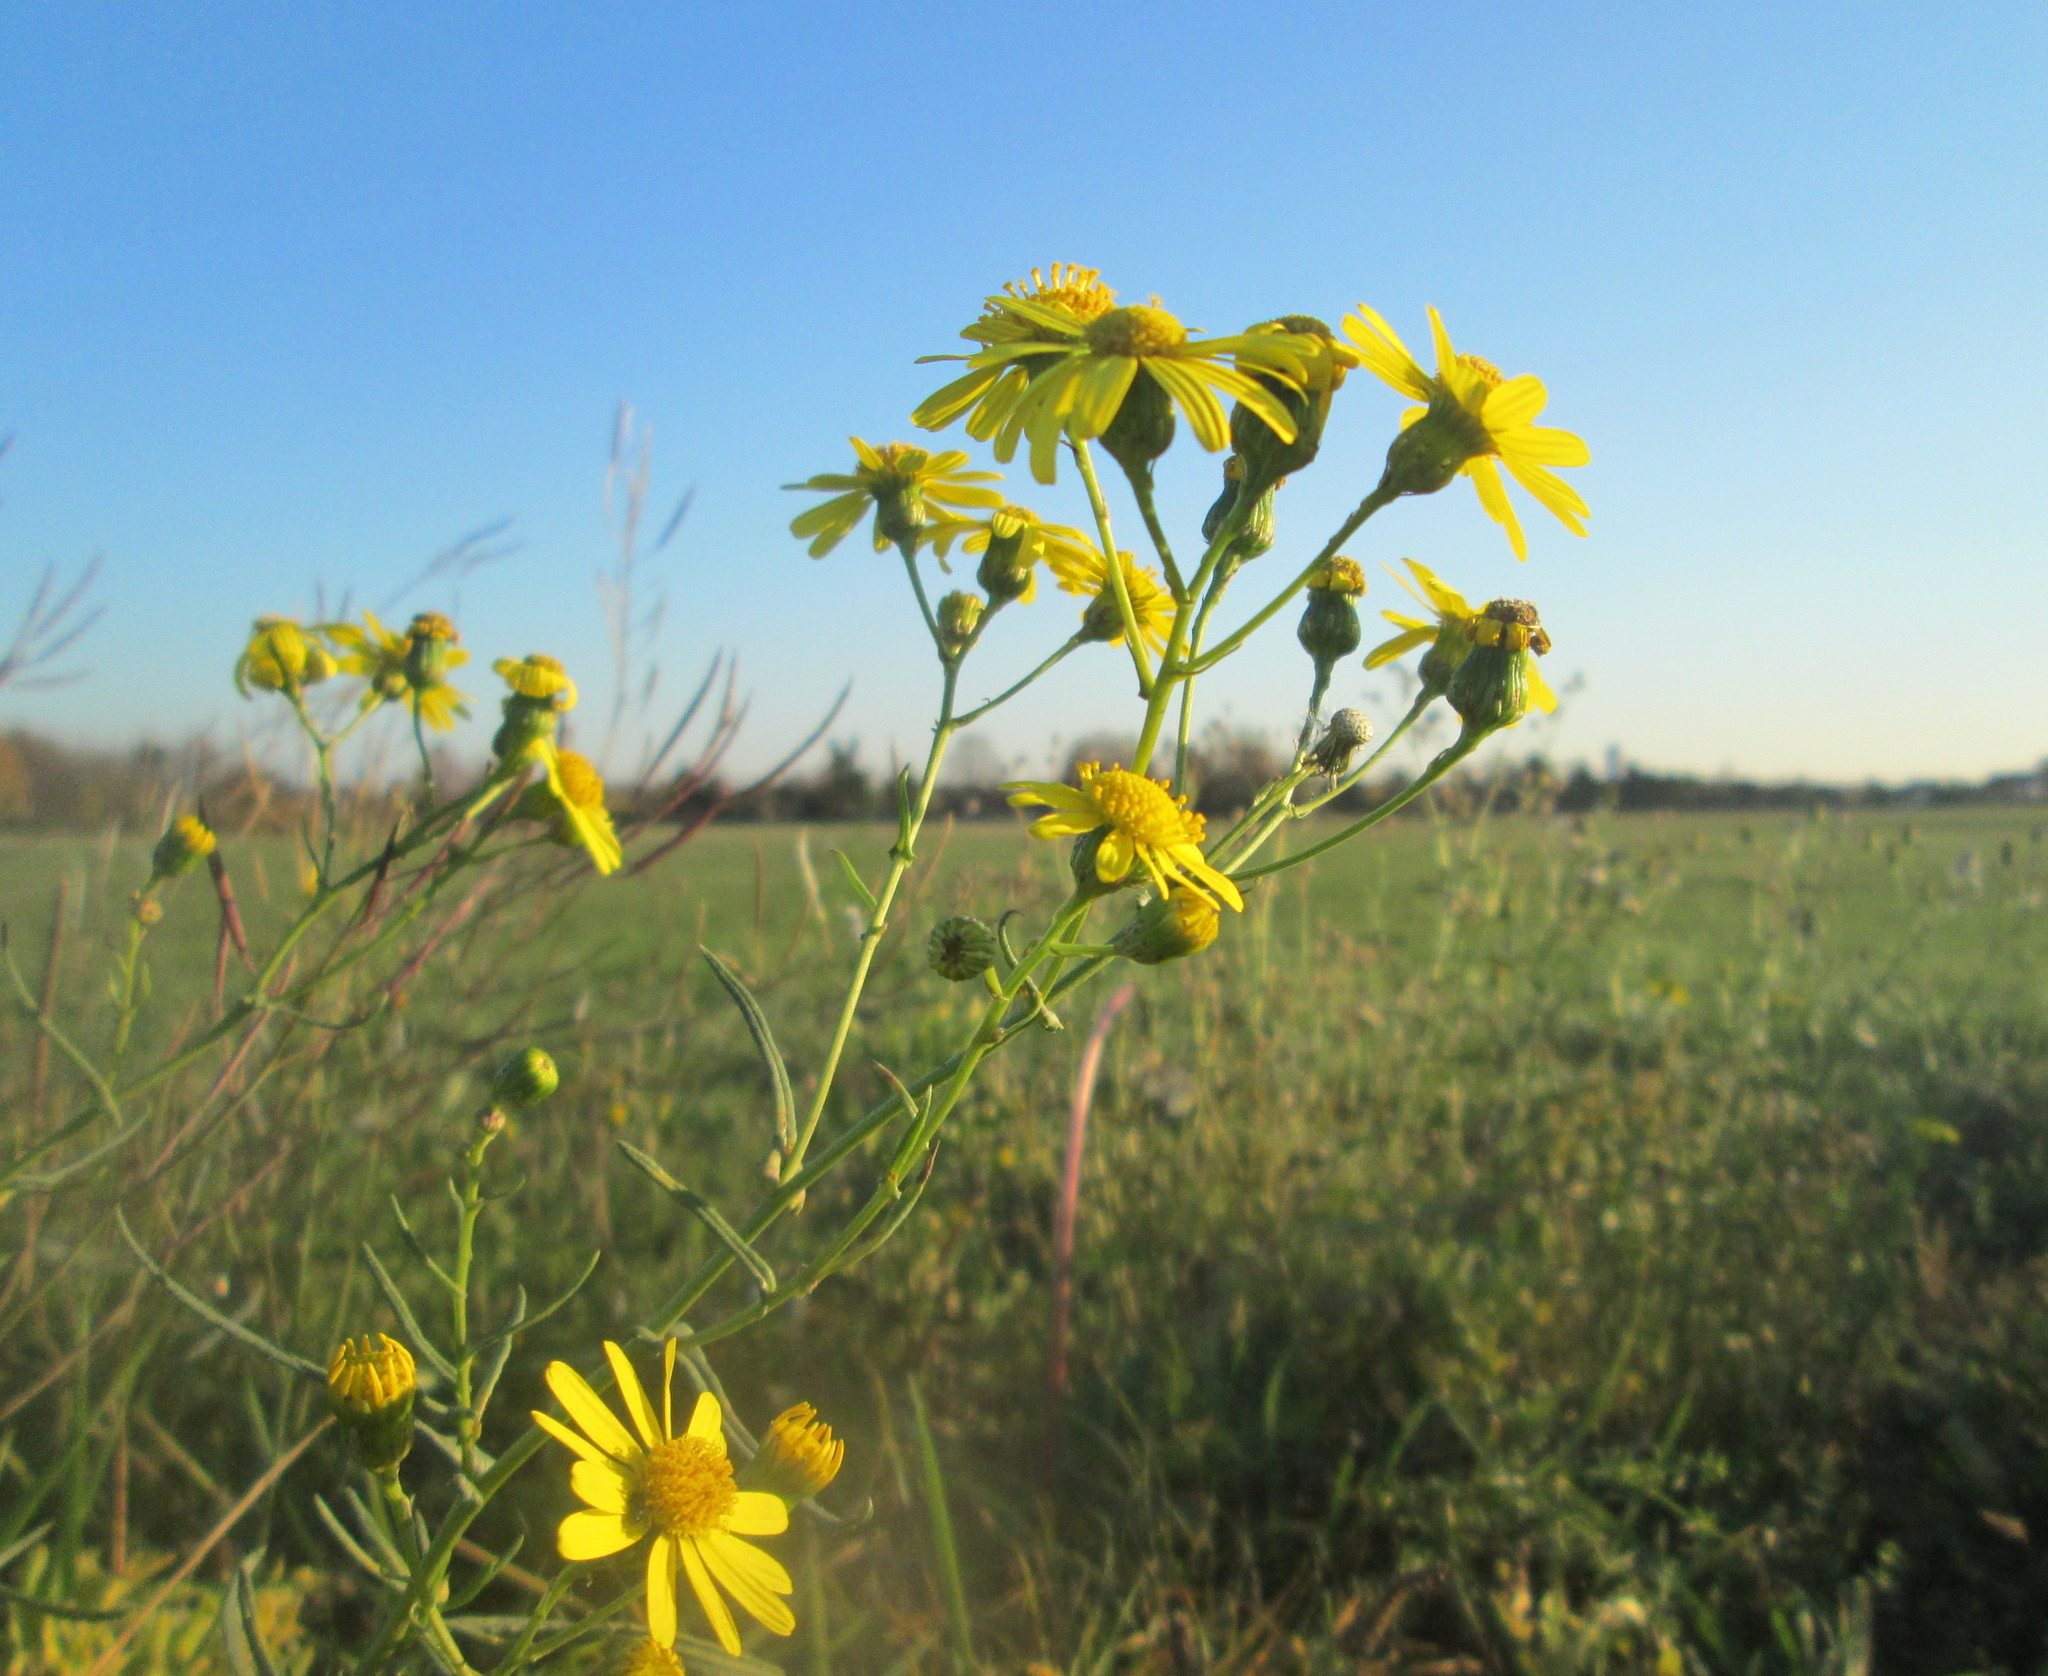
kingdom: Plantae
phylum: Tracheophyta
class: Magnoliopsida
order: Asterales
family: Asteraceae
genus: Senecio
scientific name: Senecio inaequidens
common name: Narrow-leaved ragwort
